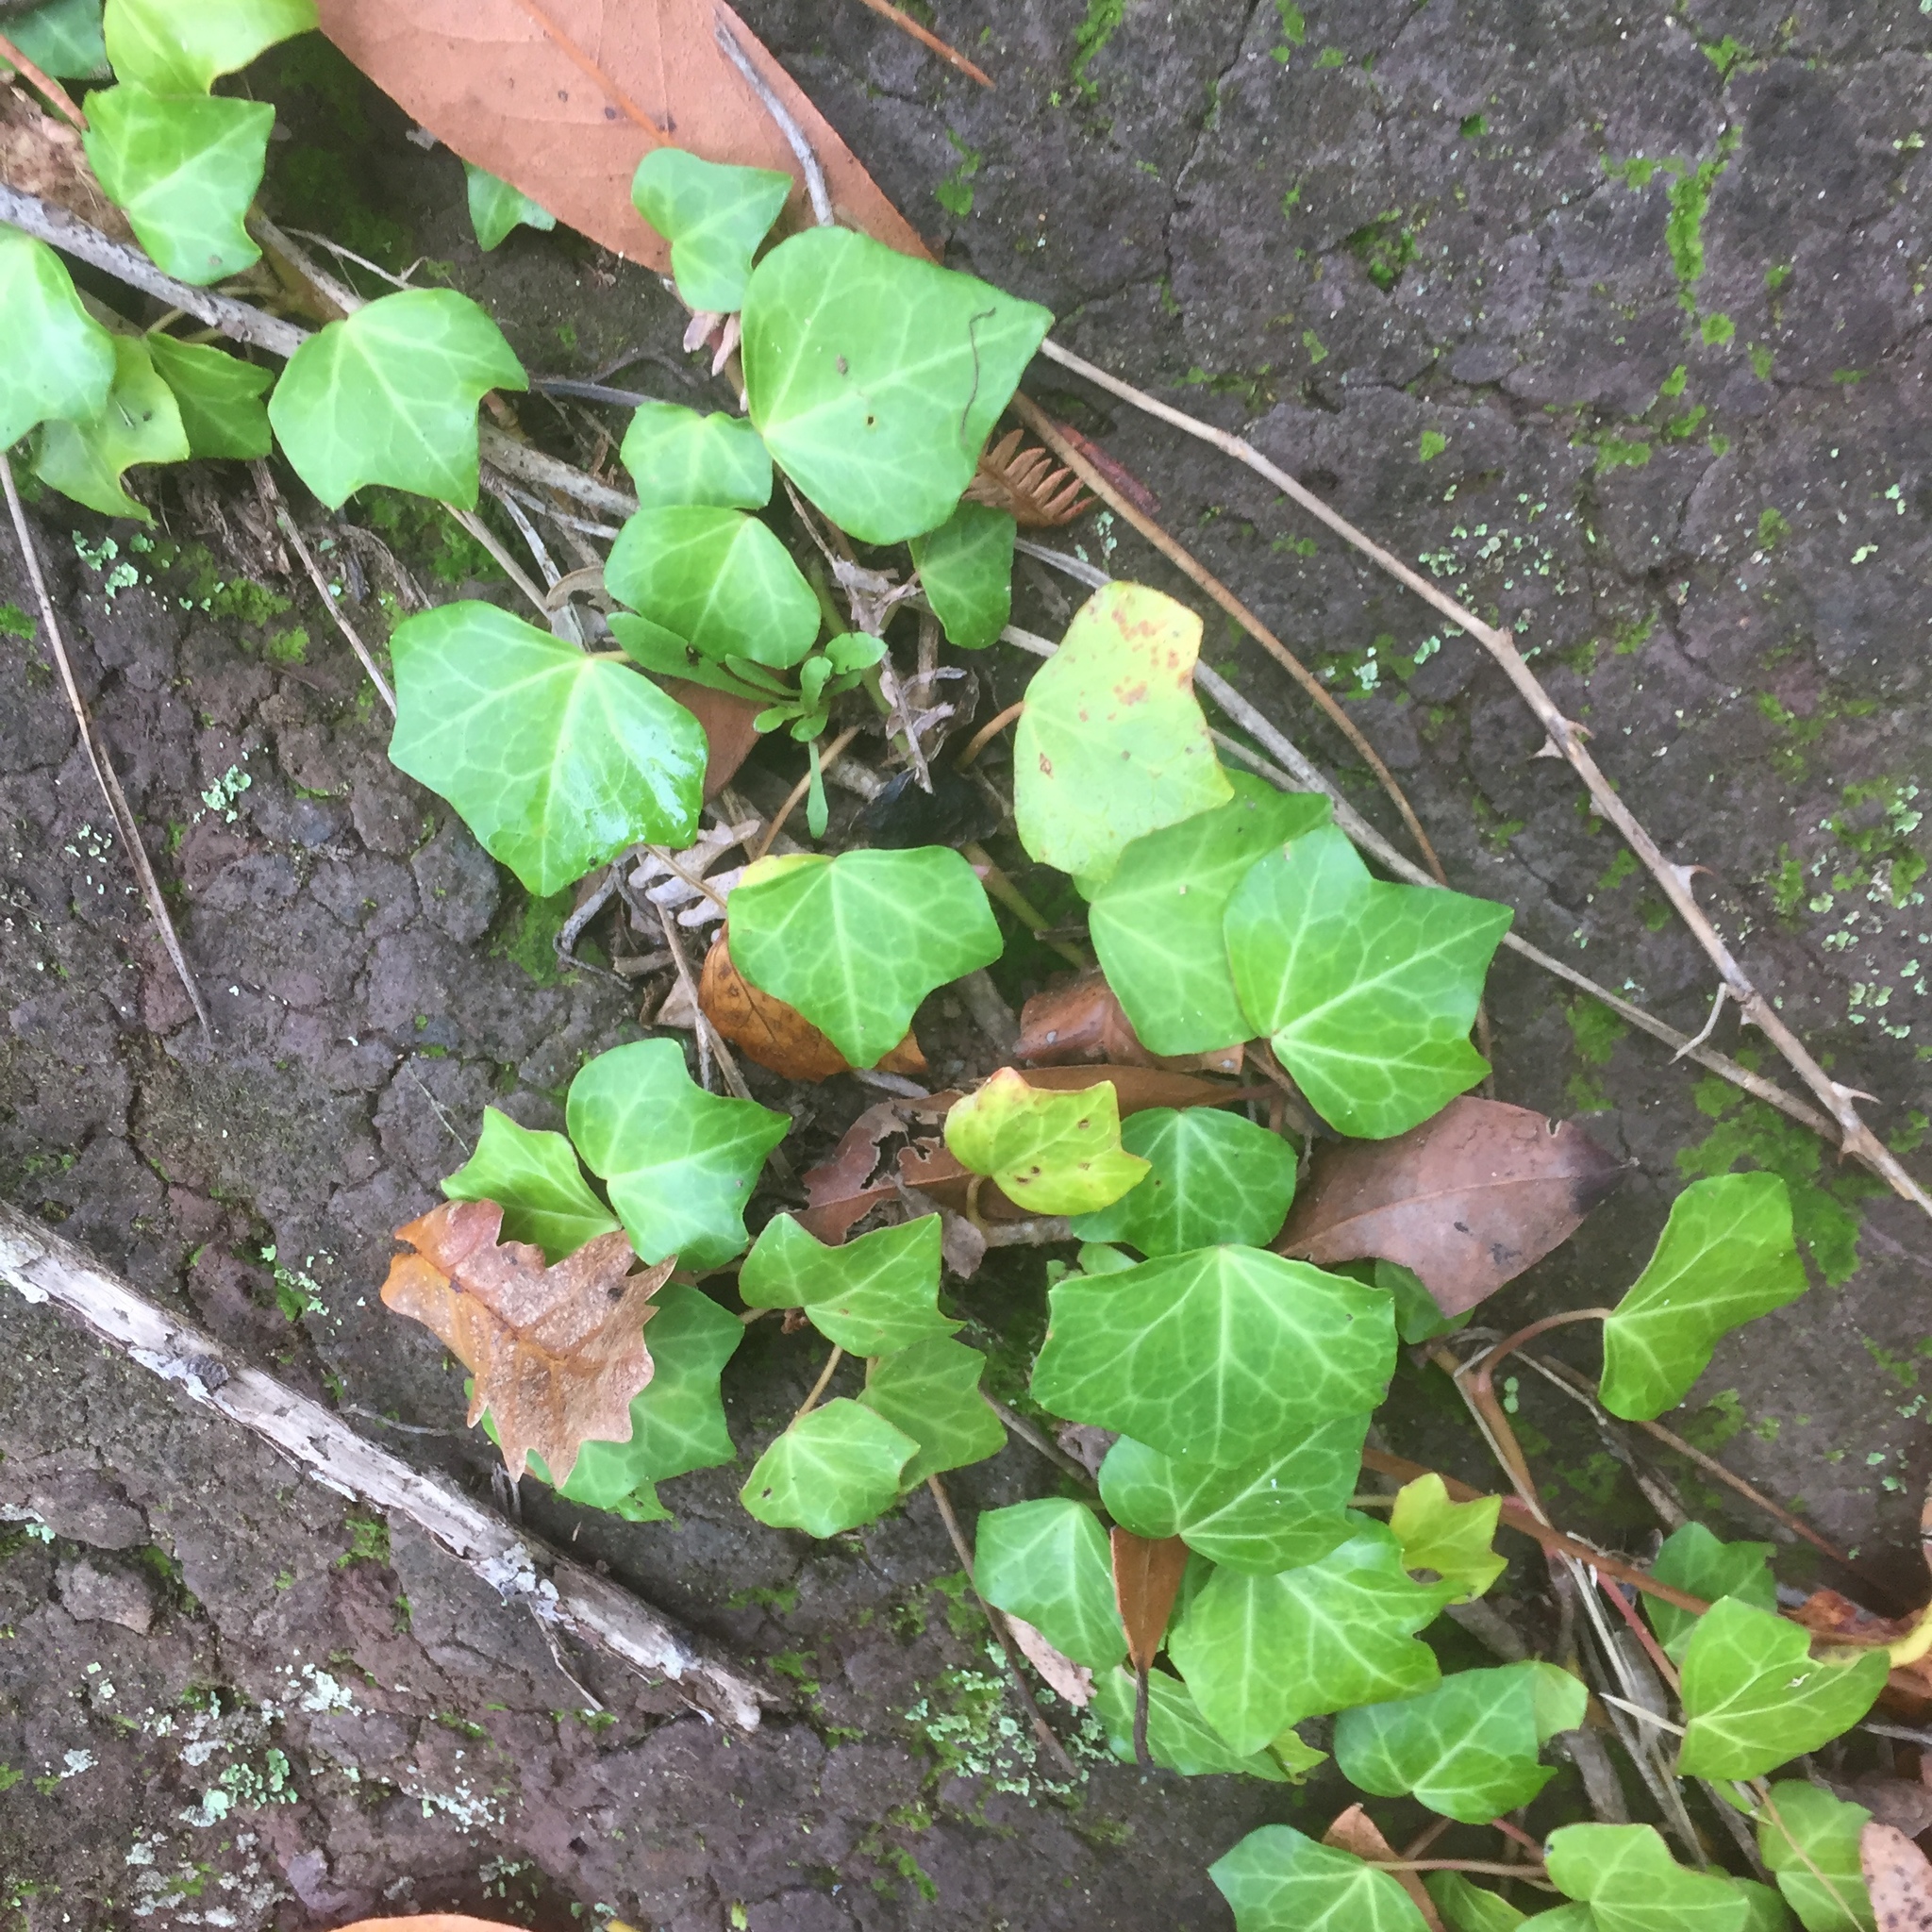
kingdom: Plantae
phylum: Tracheophyta
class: Magnoliopsida
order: Apiales
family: Araliaceae
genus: Hedera
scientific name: Hedera maderensis
